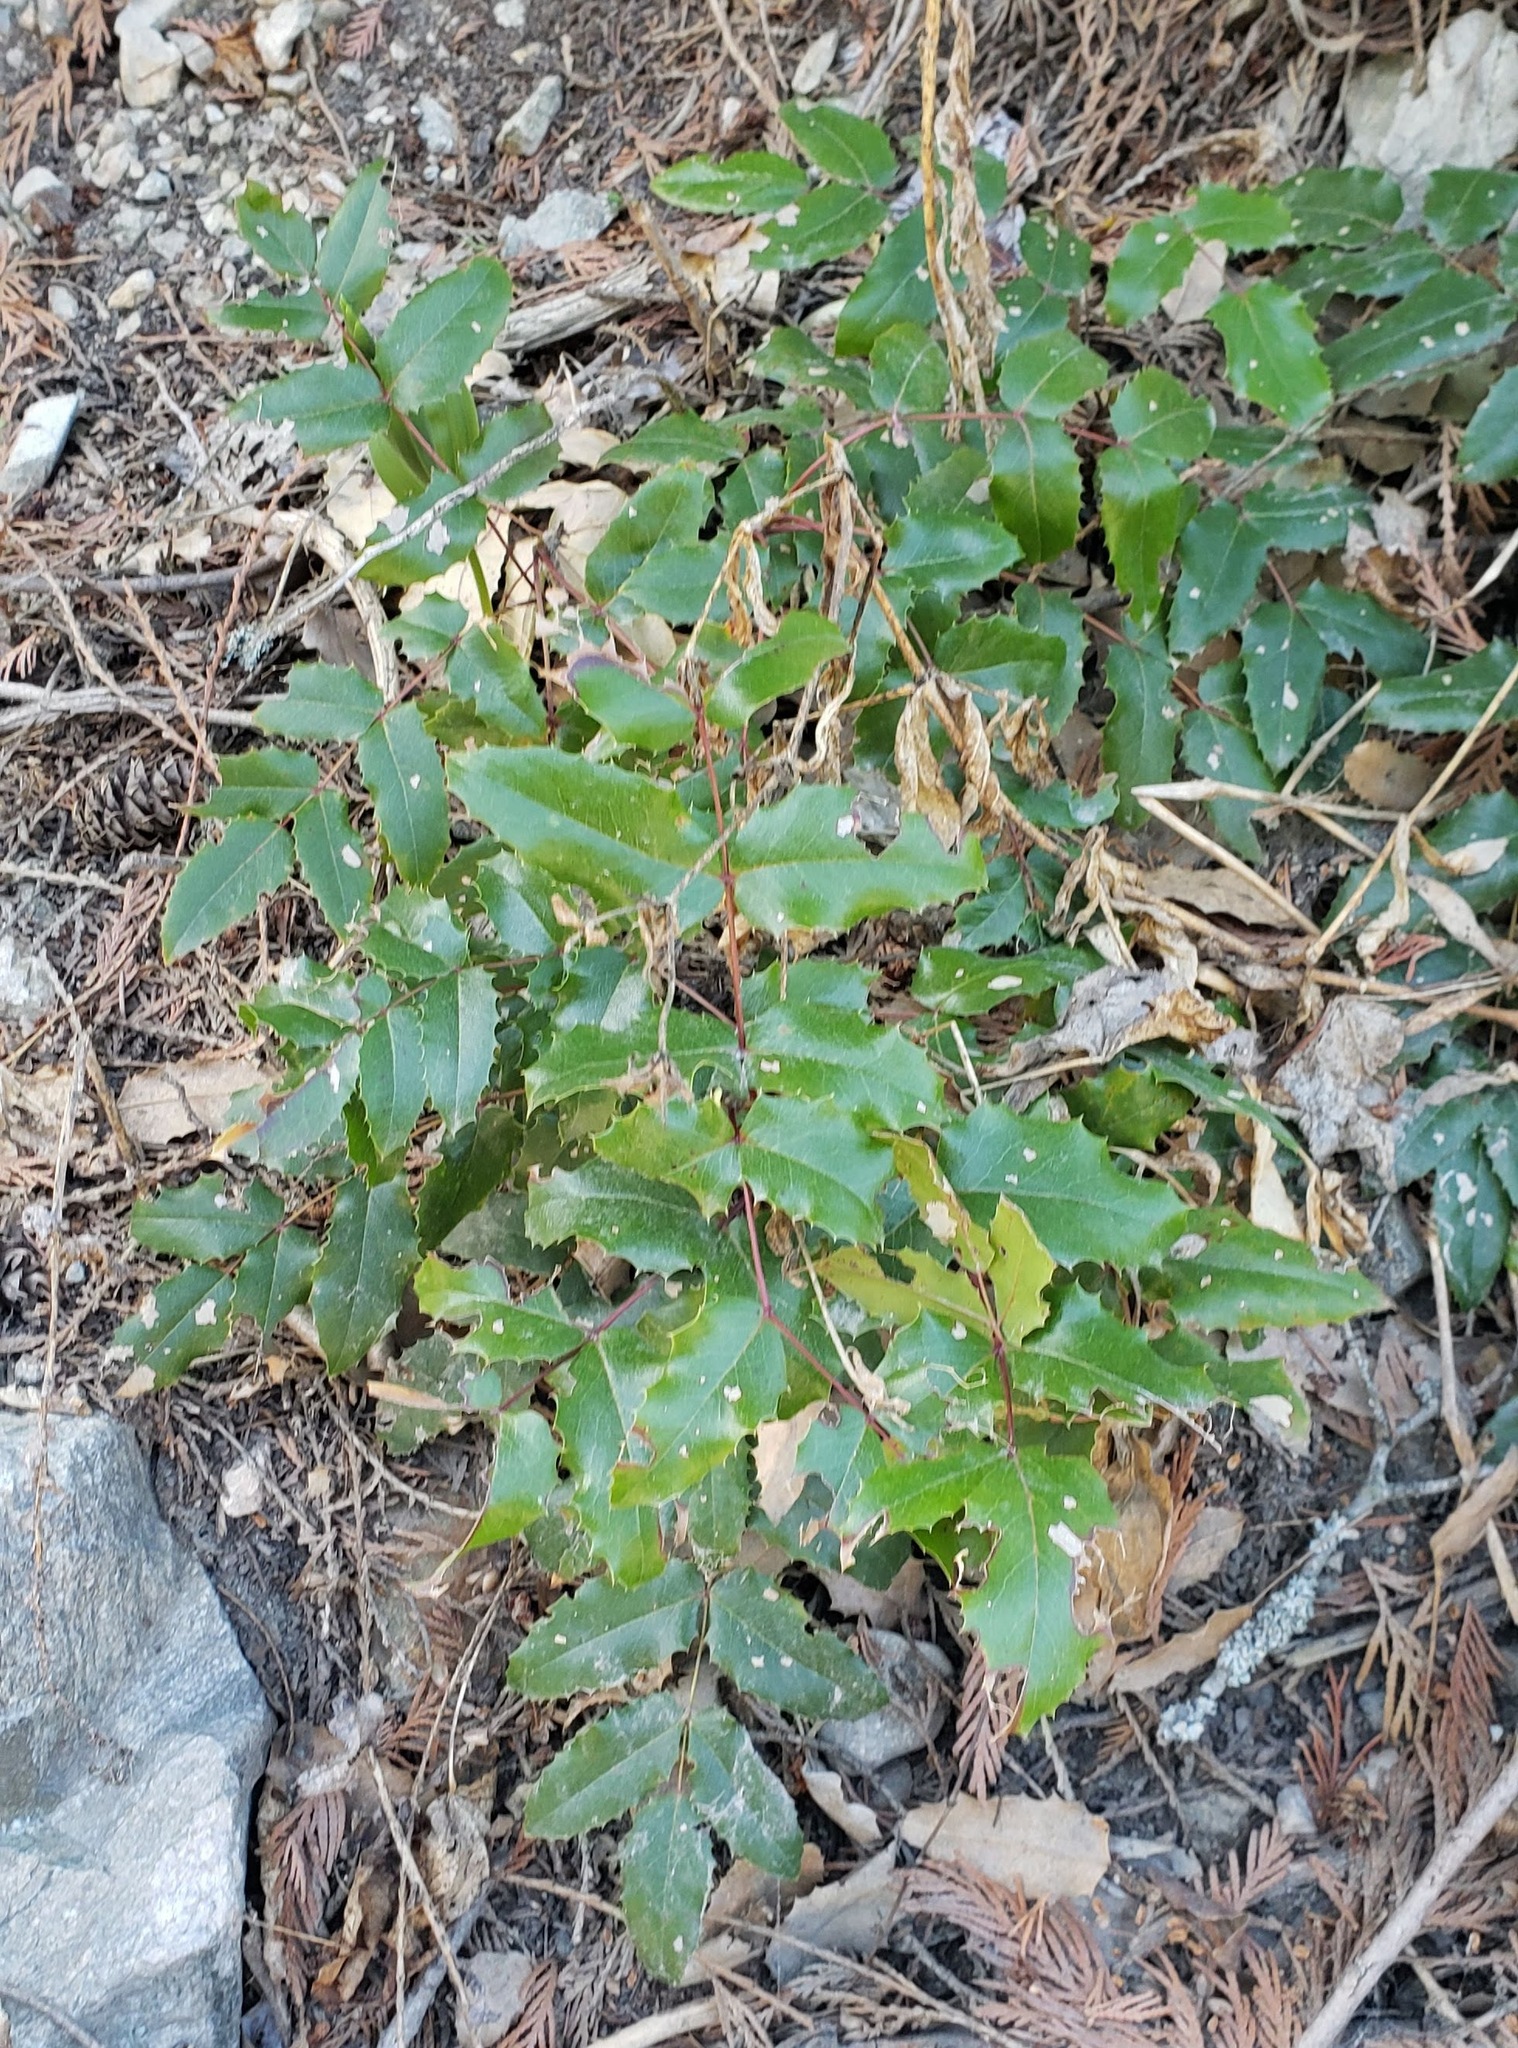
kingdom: Plantae
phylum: Tracheophyta
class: Magnoliopsida
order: Ranunculales
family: Berberidaceae
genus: Mahonia
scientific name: Mahonia aquifolium
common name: Oregon-grape
